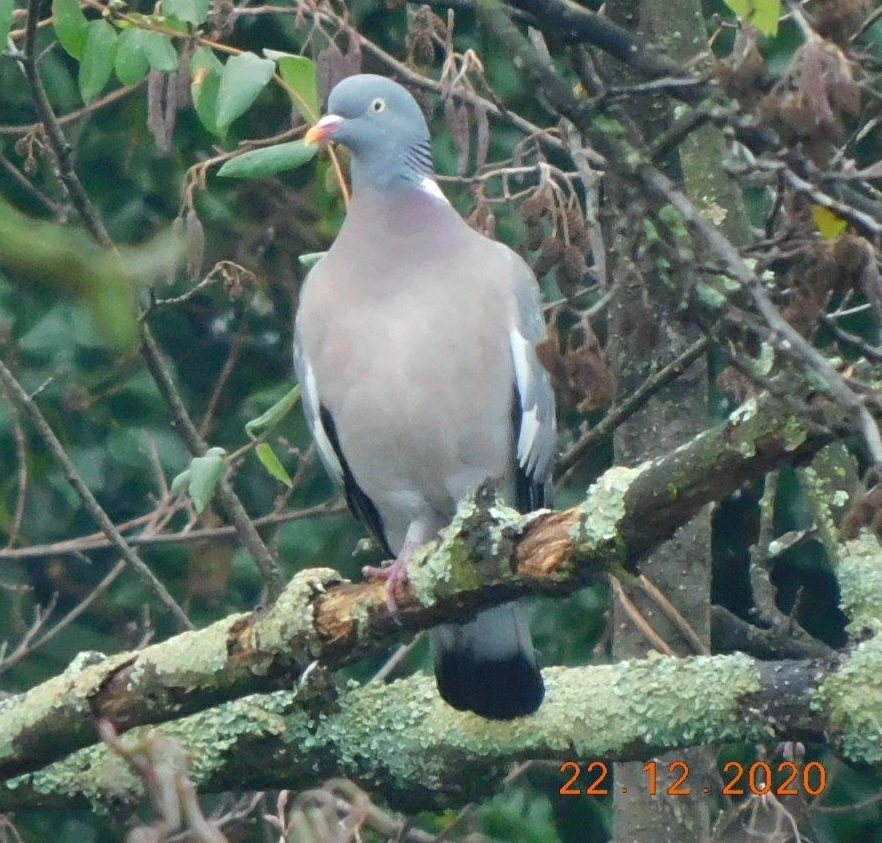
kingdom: Animalia
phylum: Chordata
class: Aves
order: Columbiformes
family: Columbidae
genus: Columba
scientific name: Columba palumbus
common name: Common wood pigeon
